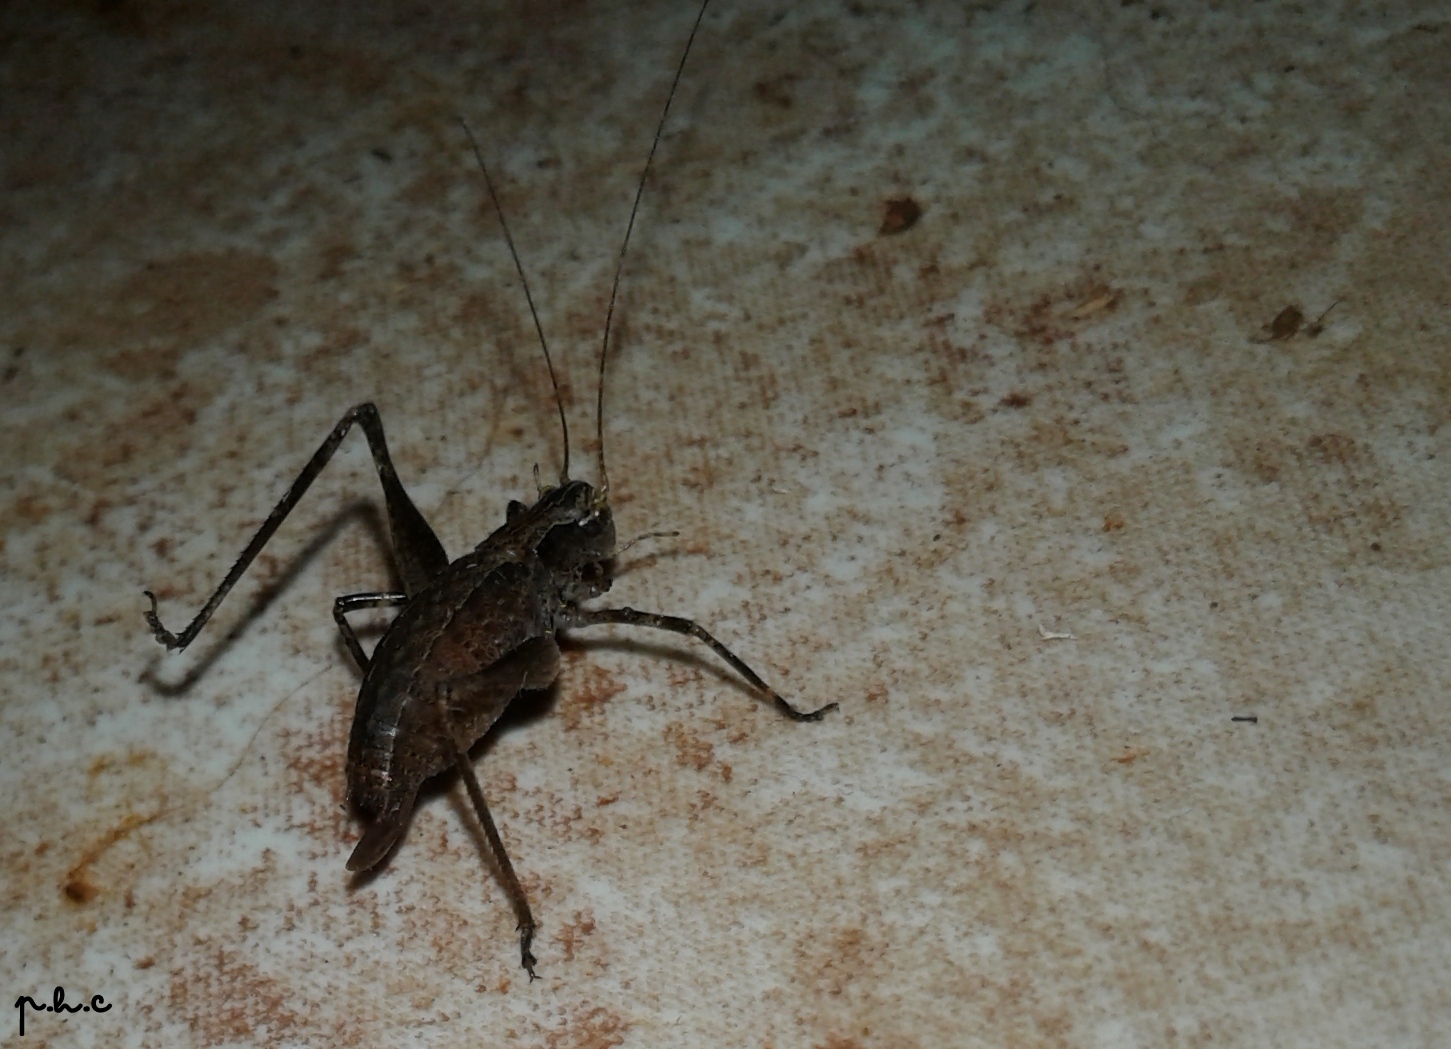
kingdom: Animalia
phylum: Arthropoda
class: Insecta
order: Orthoptera
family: Tettigoniidae
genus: Anisophya
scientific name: Anisophya una
